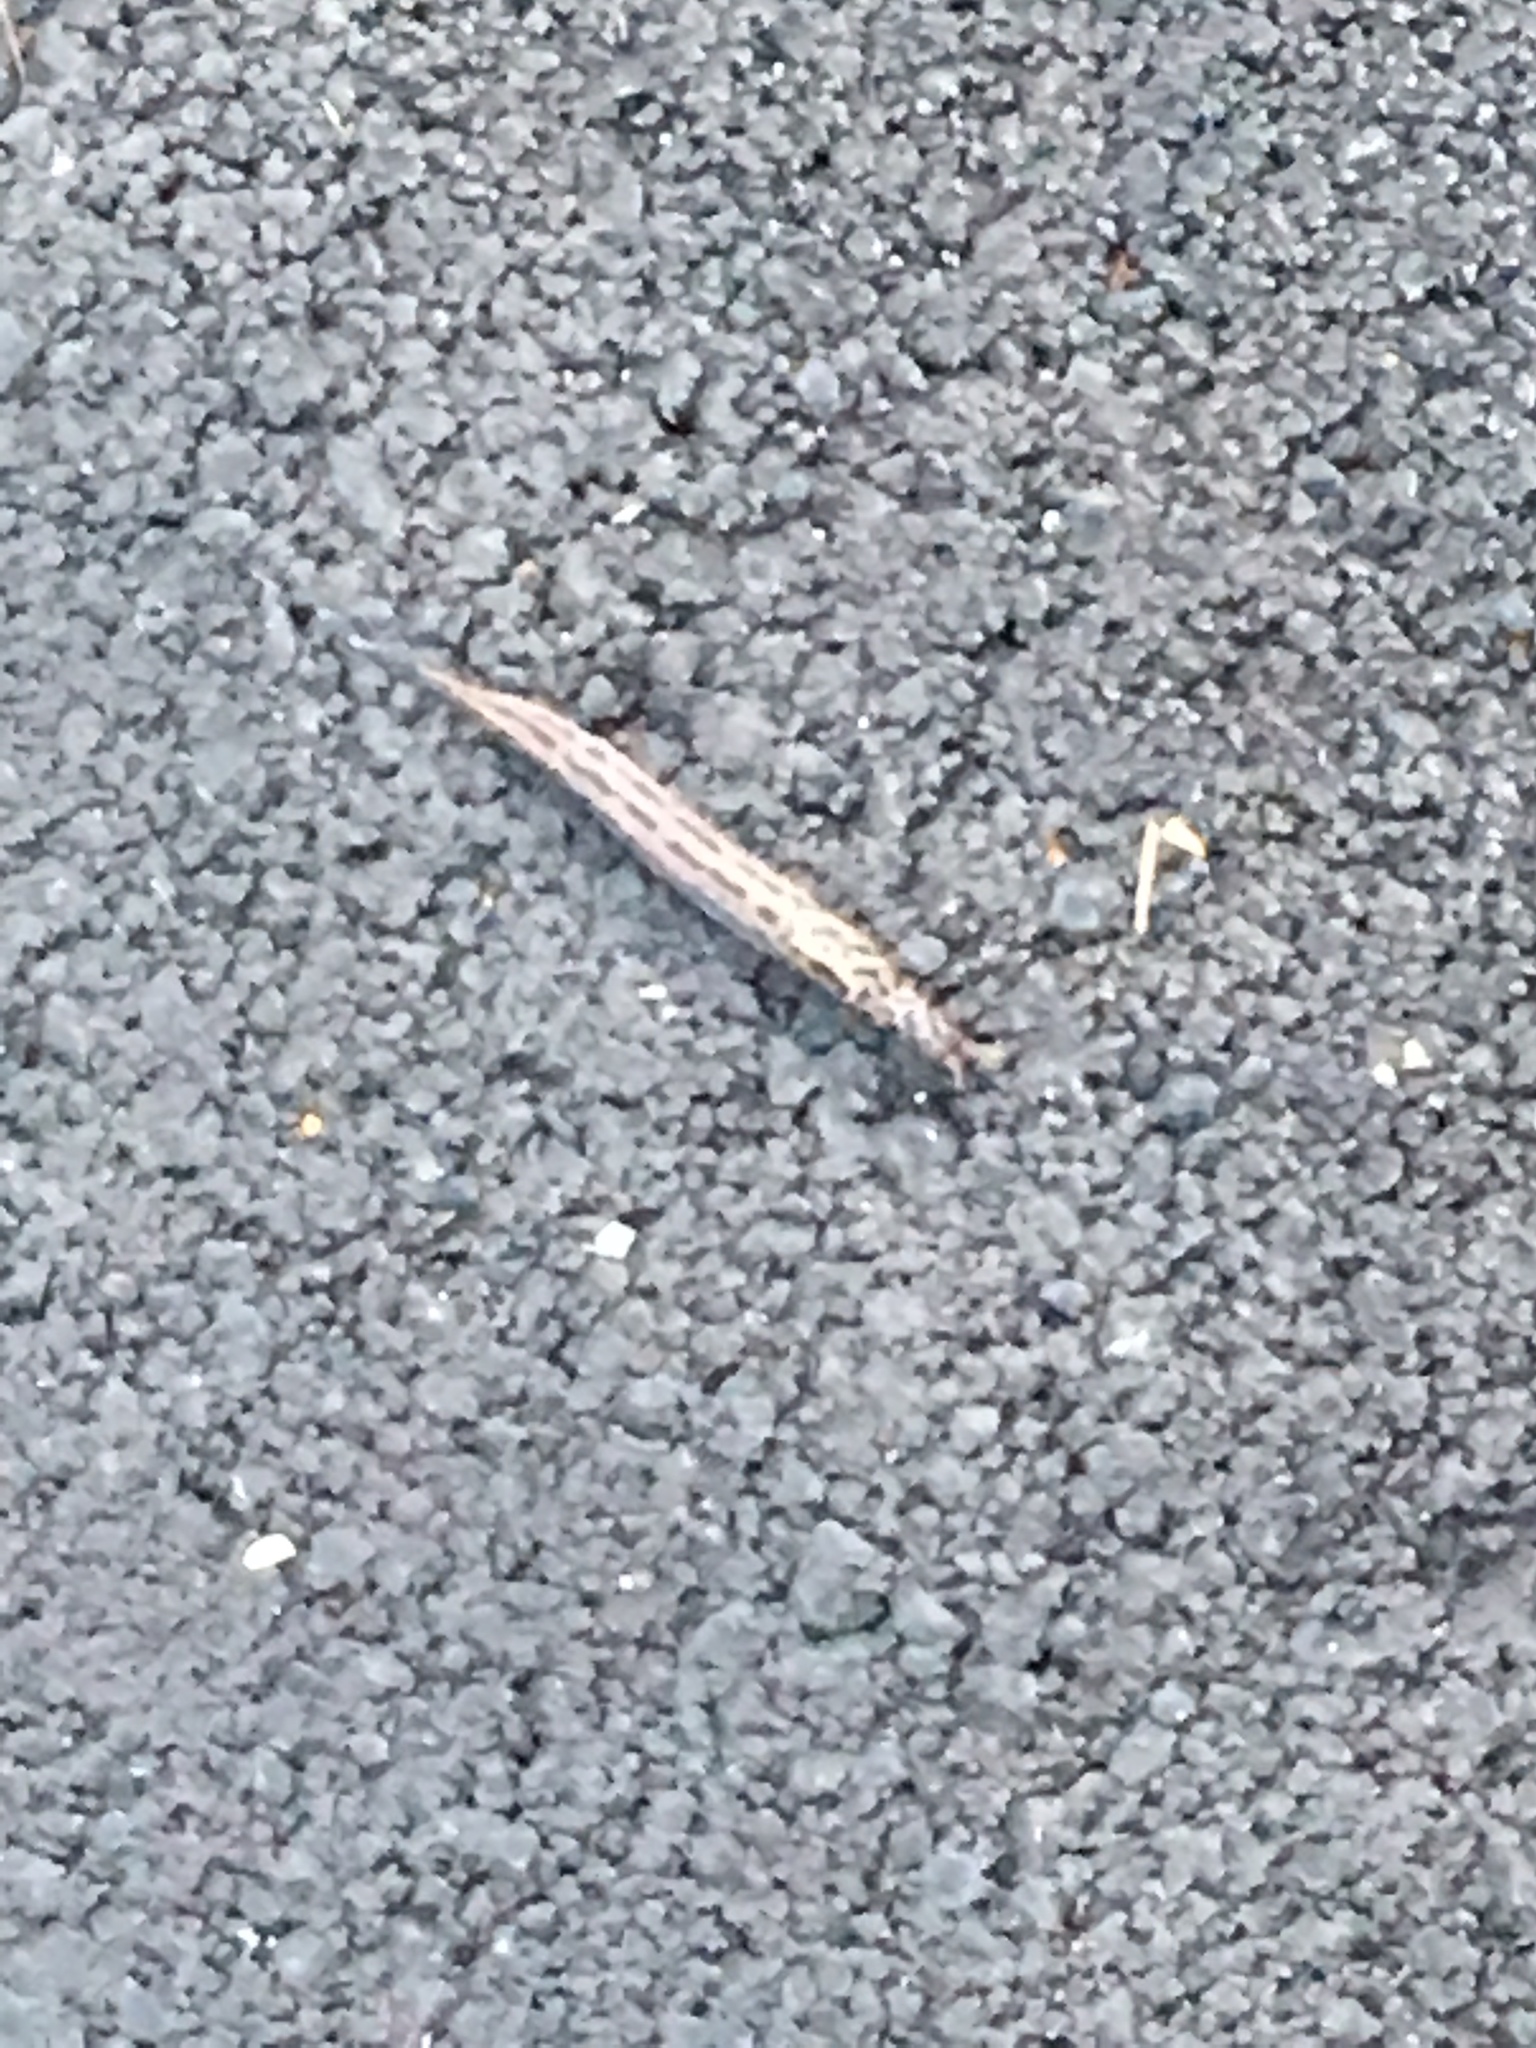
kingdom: Animalia
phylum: Mollusca
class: Gastropoda
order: Stylommatophora
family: Limacidae
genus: Limax
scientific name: Limax maximus
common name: Great grey slug
